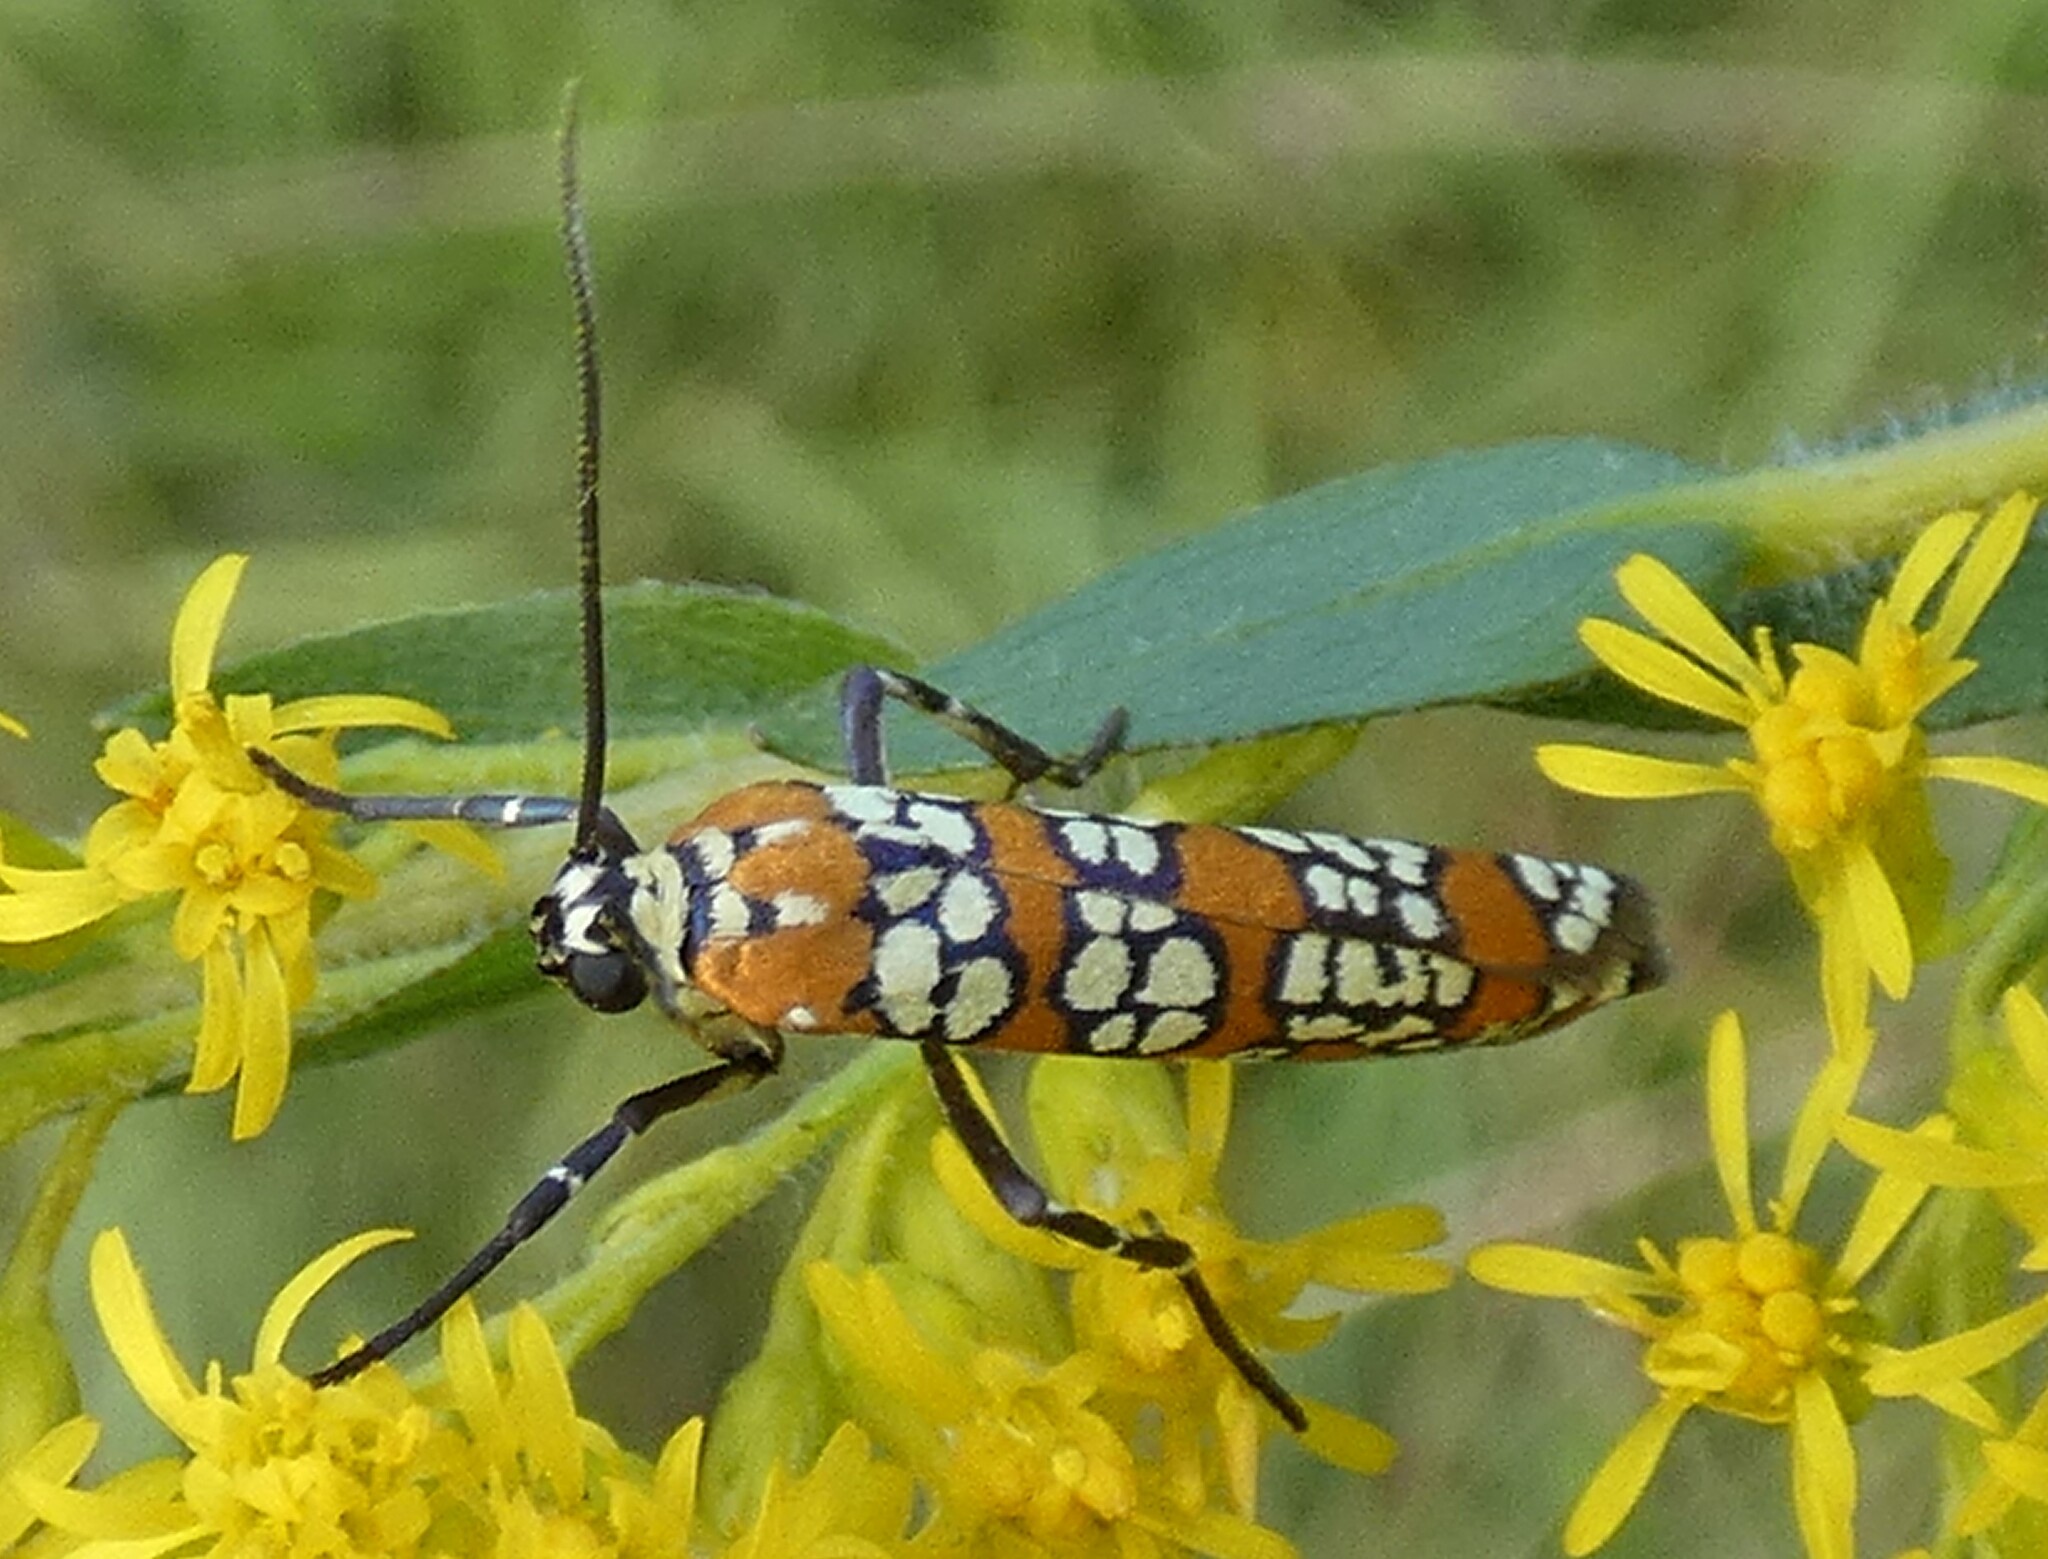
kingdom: Animalia
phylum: Arthropoda
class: Insecta
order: Lepidoptera
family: Attevidae
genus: Atteva
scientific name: Atteva punctella
